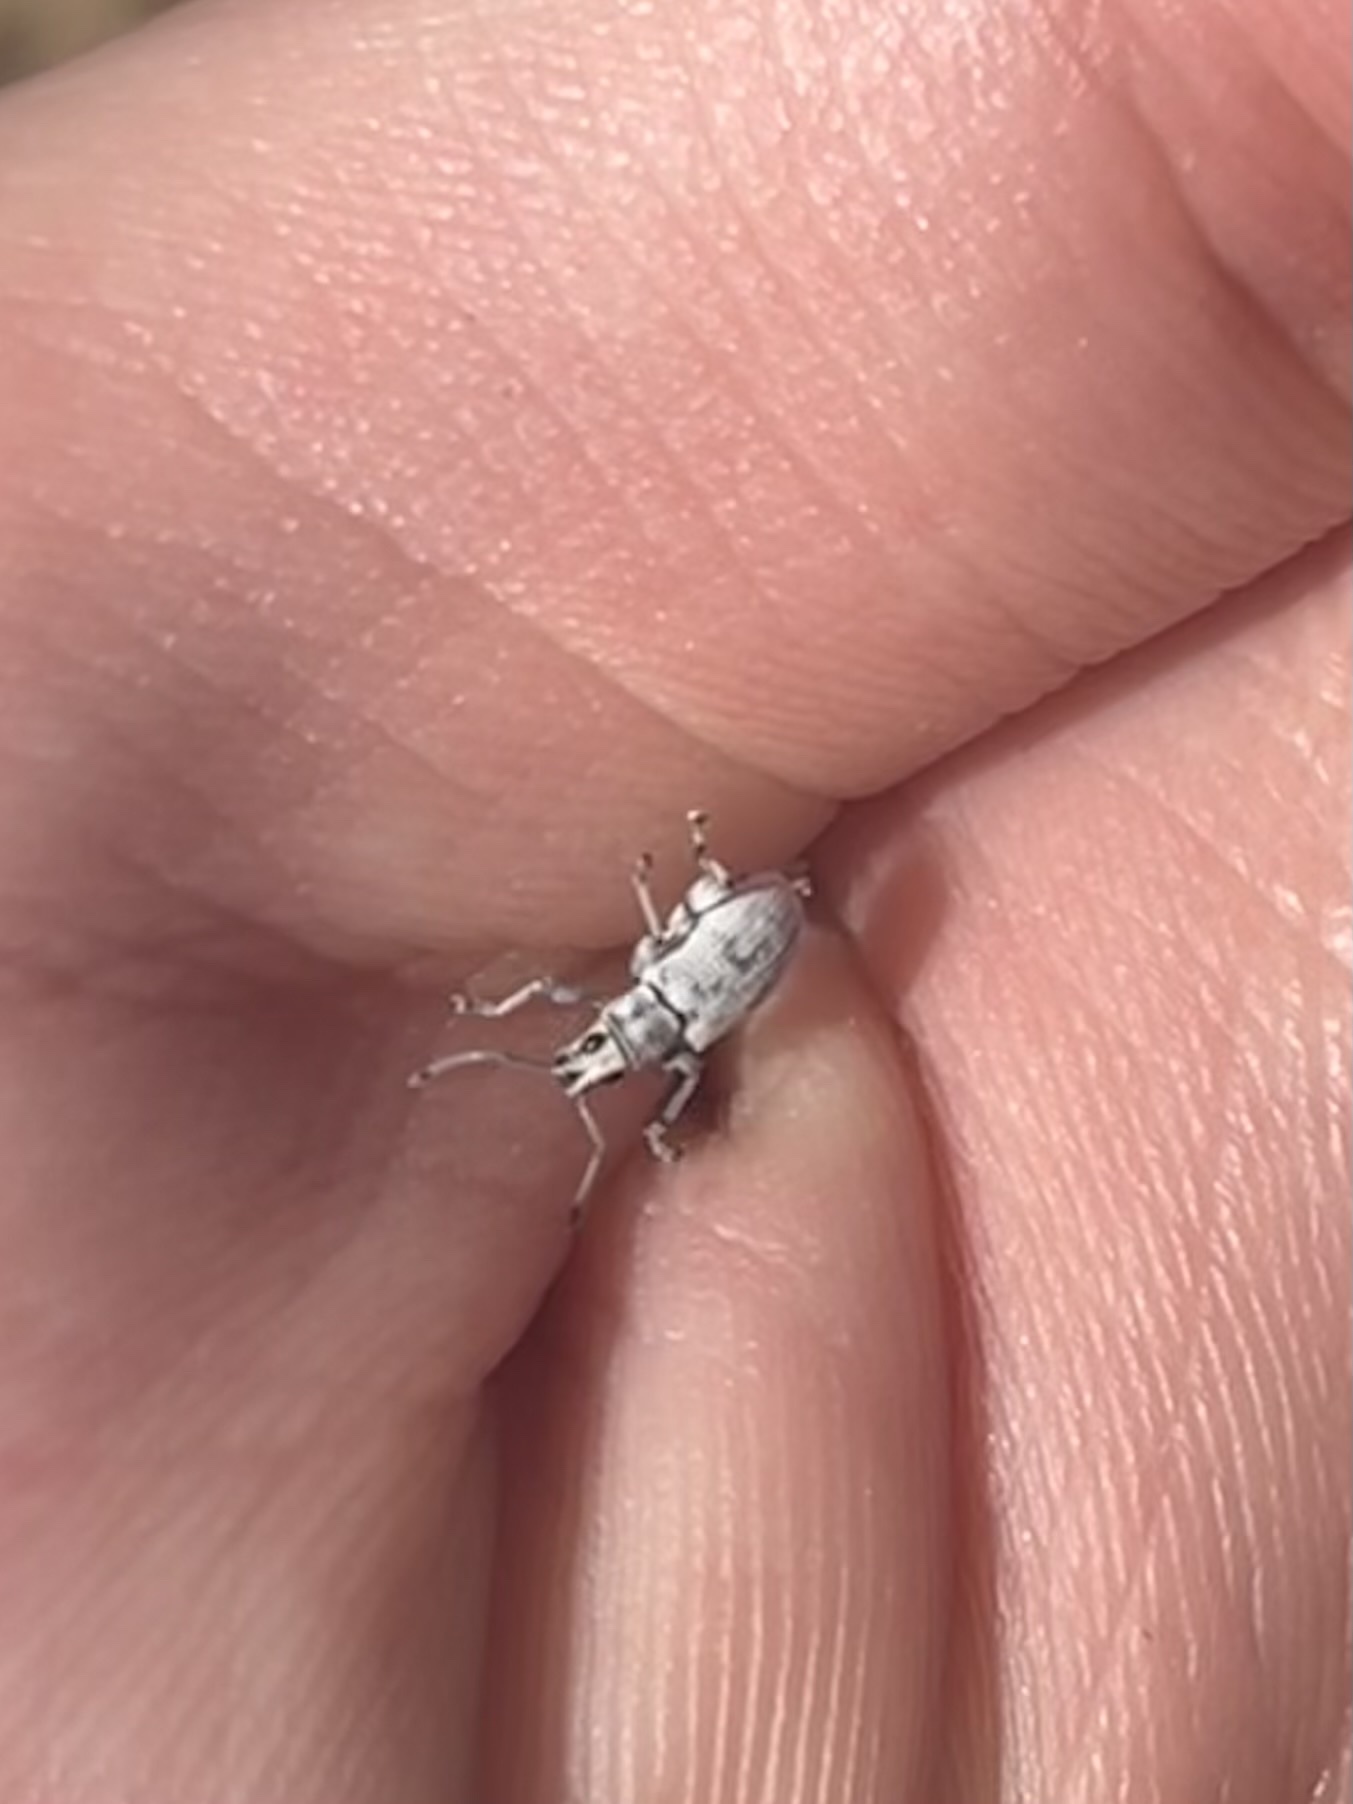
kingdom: Animalia
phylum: Arthropoda
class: Insecta
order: Coleoptera
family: Curculionidae
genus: Myllocerus
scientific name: Myllocerus undecimpustulatus
